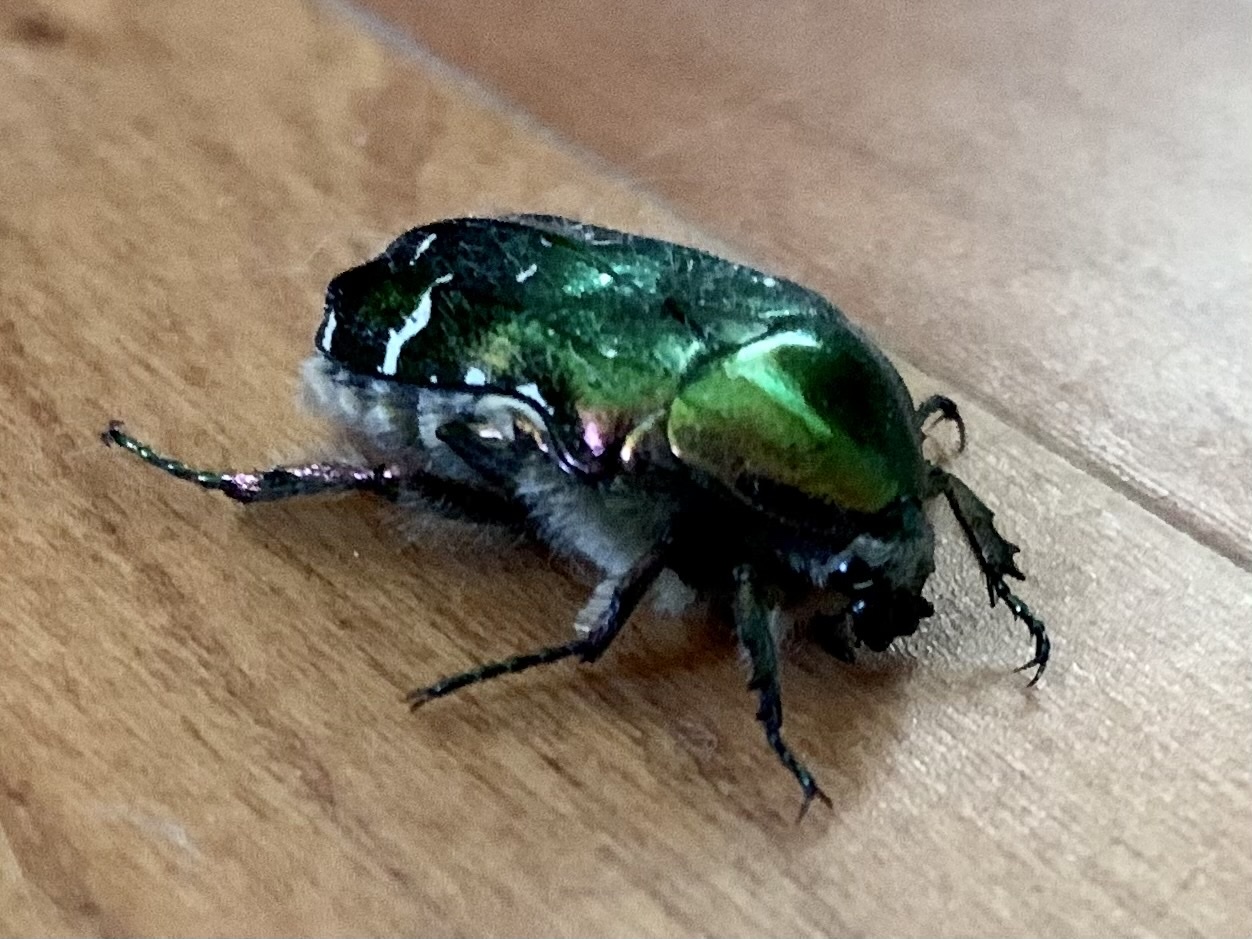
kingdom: Animalia
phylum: Arthropoda
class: Insecta
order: Coleoptera
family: Scarabaeidae
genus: Cetonia
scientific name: Cetonia aurata
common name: Rose chafer
